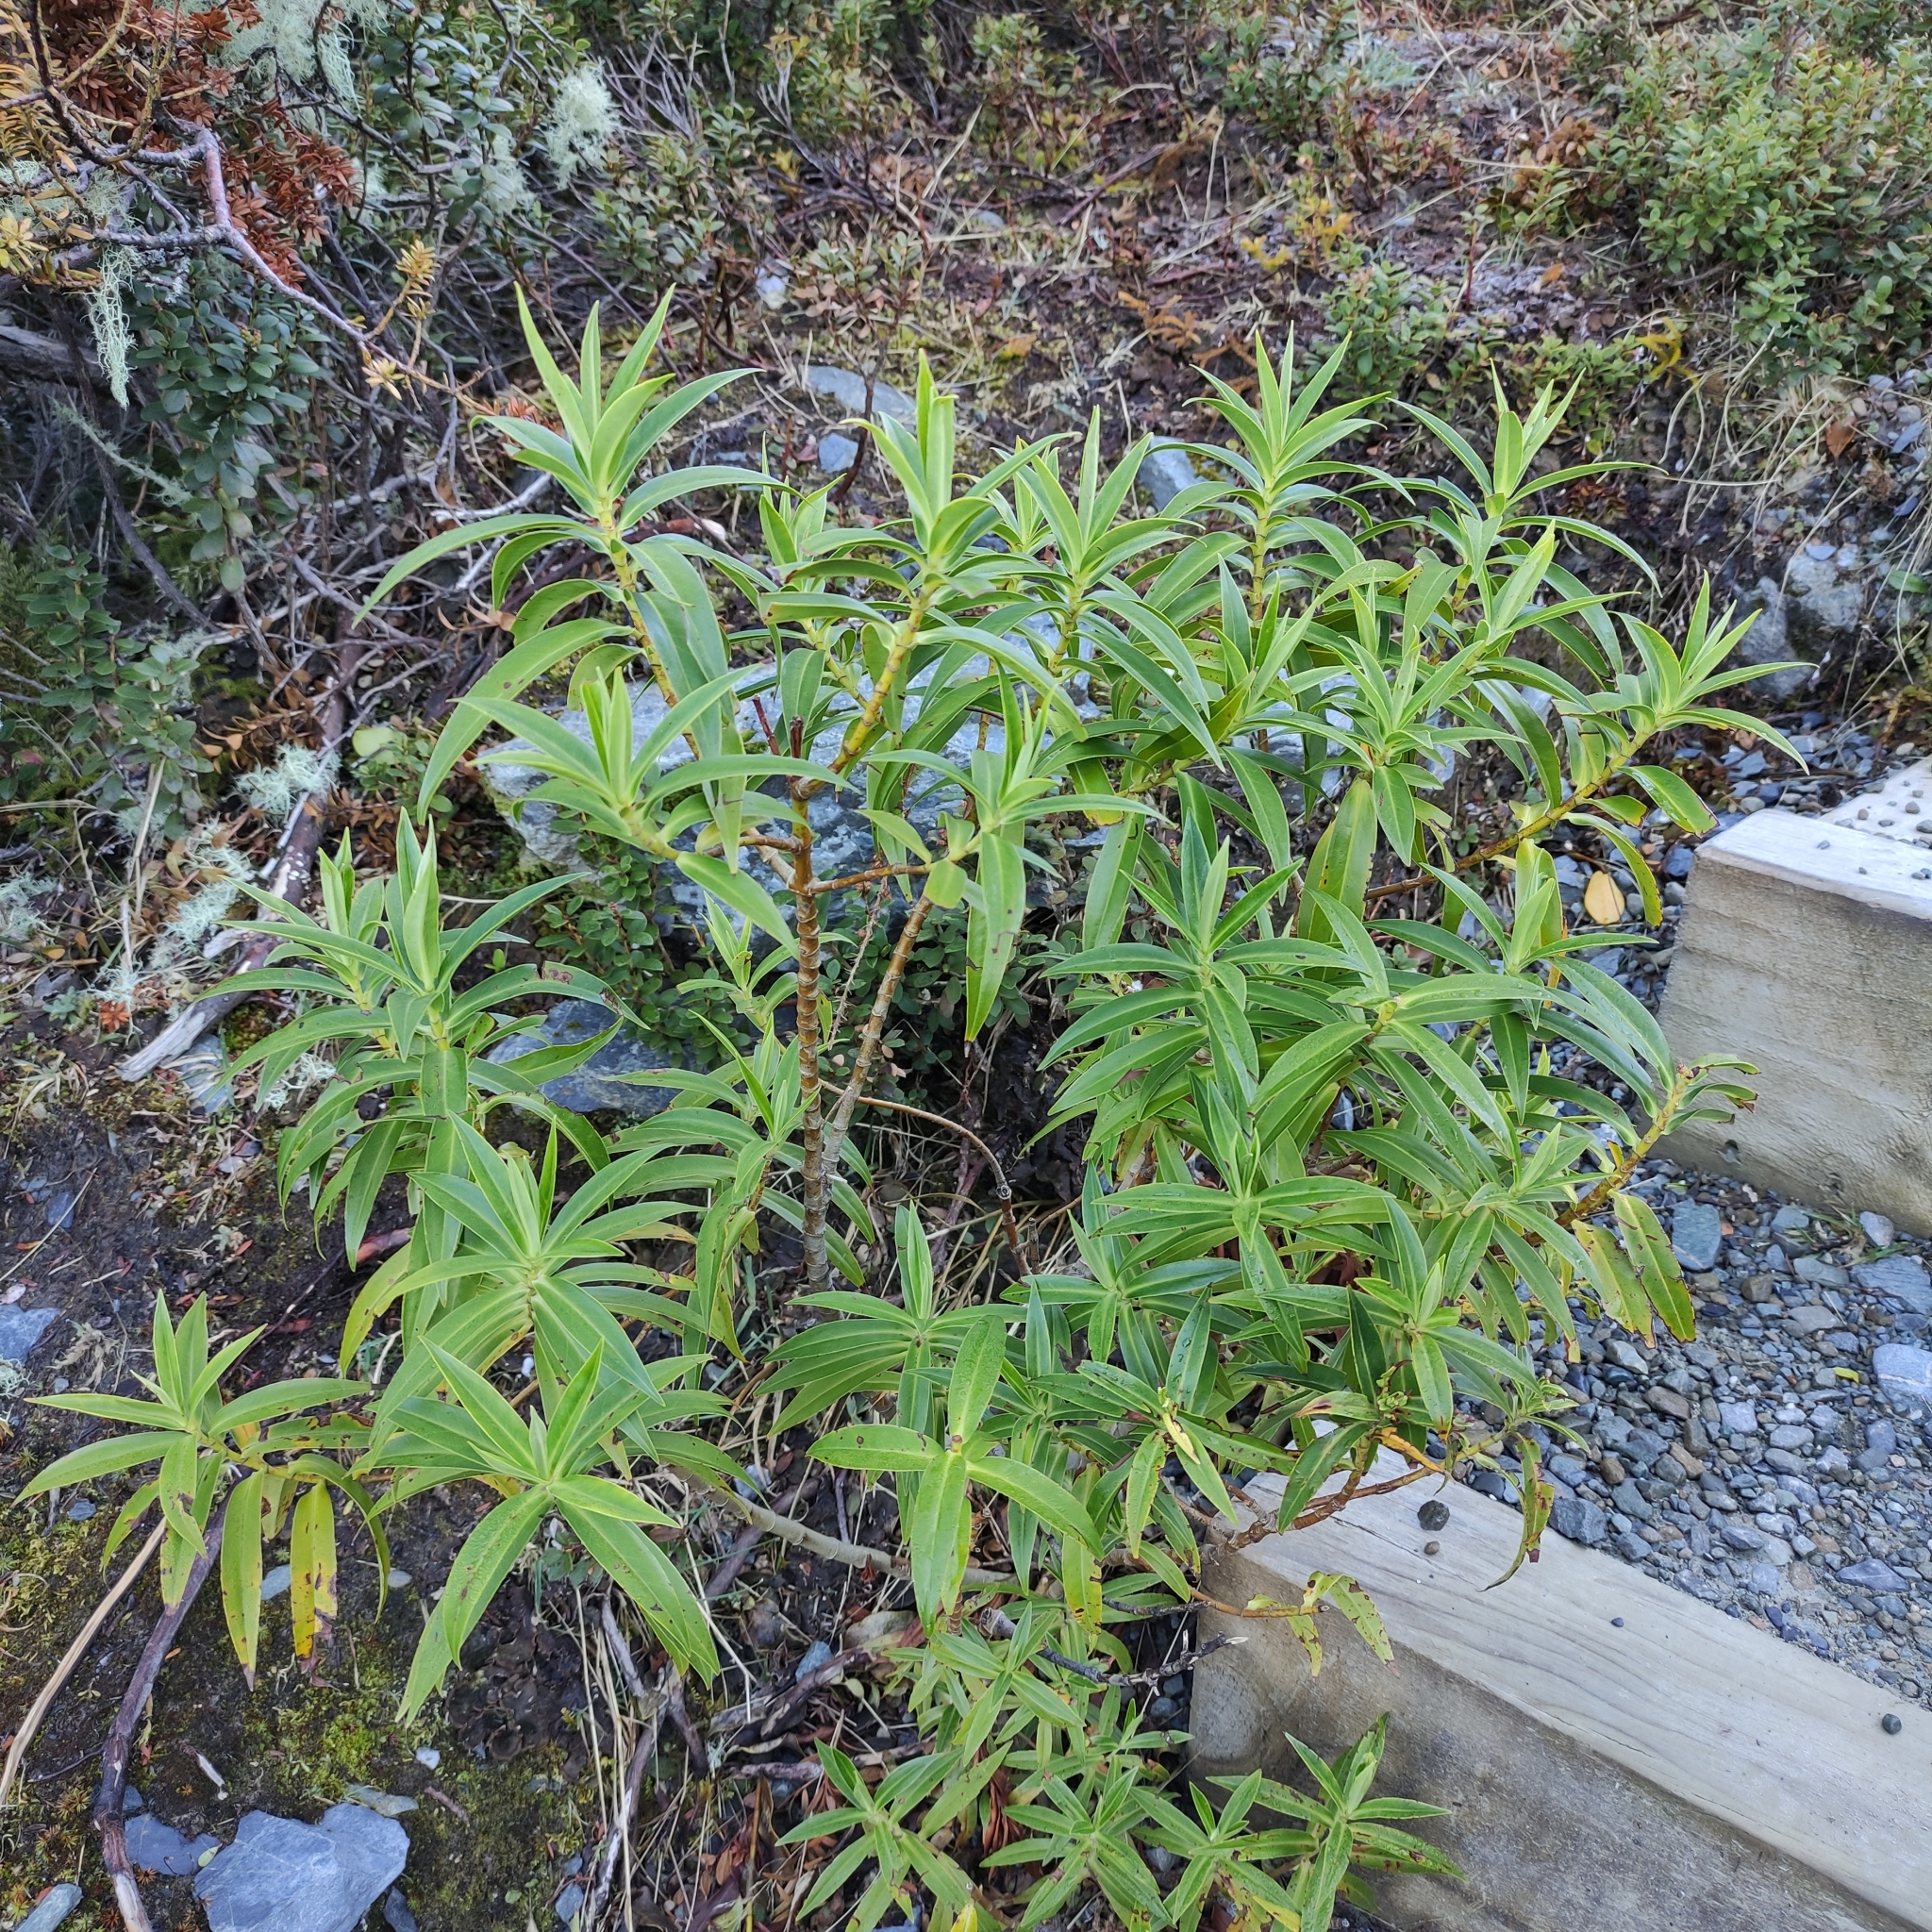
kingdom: Plantae
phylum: Tracheophyta
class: Magnoliopsida
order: Lamiales
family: Plantaginaceae
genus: Veronica
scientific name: Veronica salicifolia
